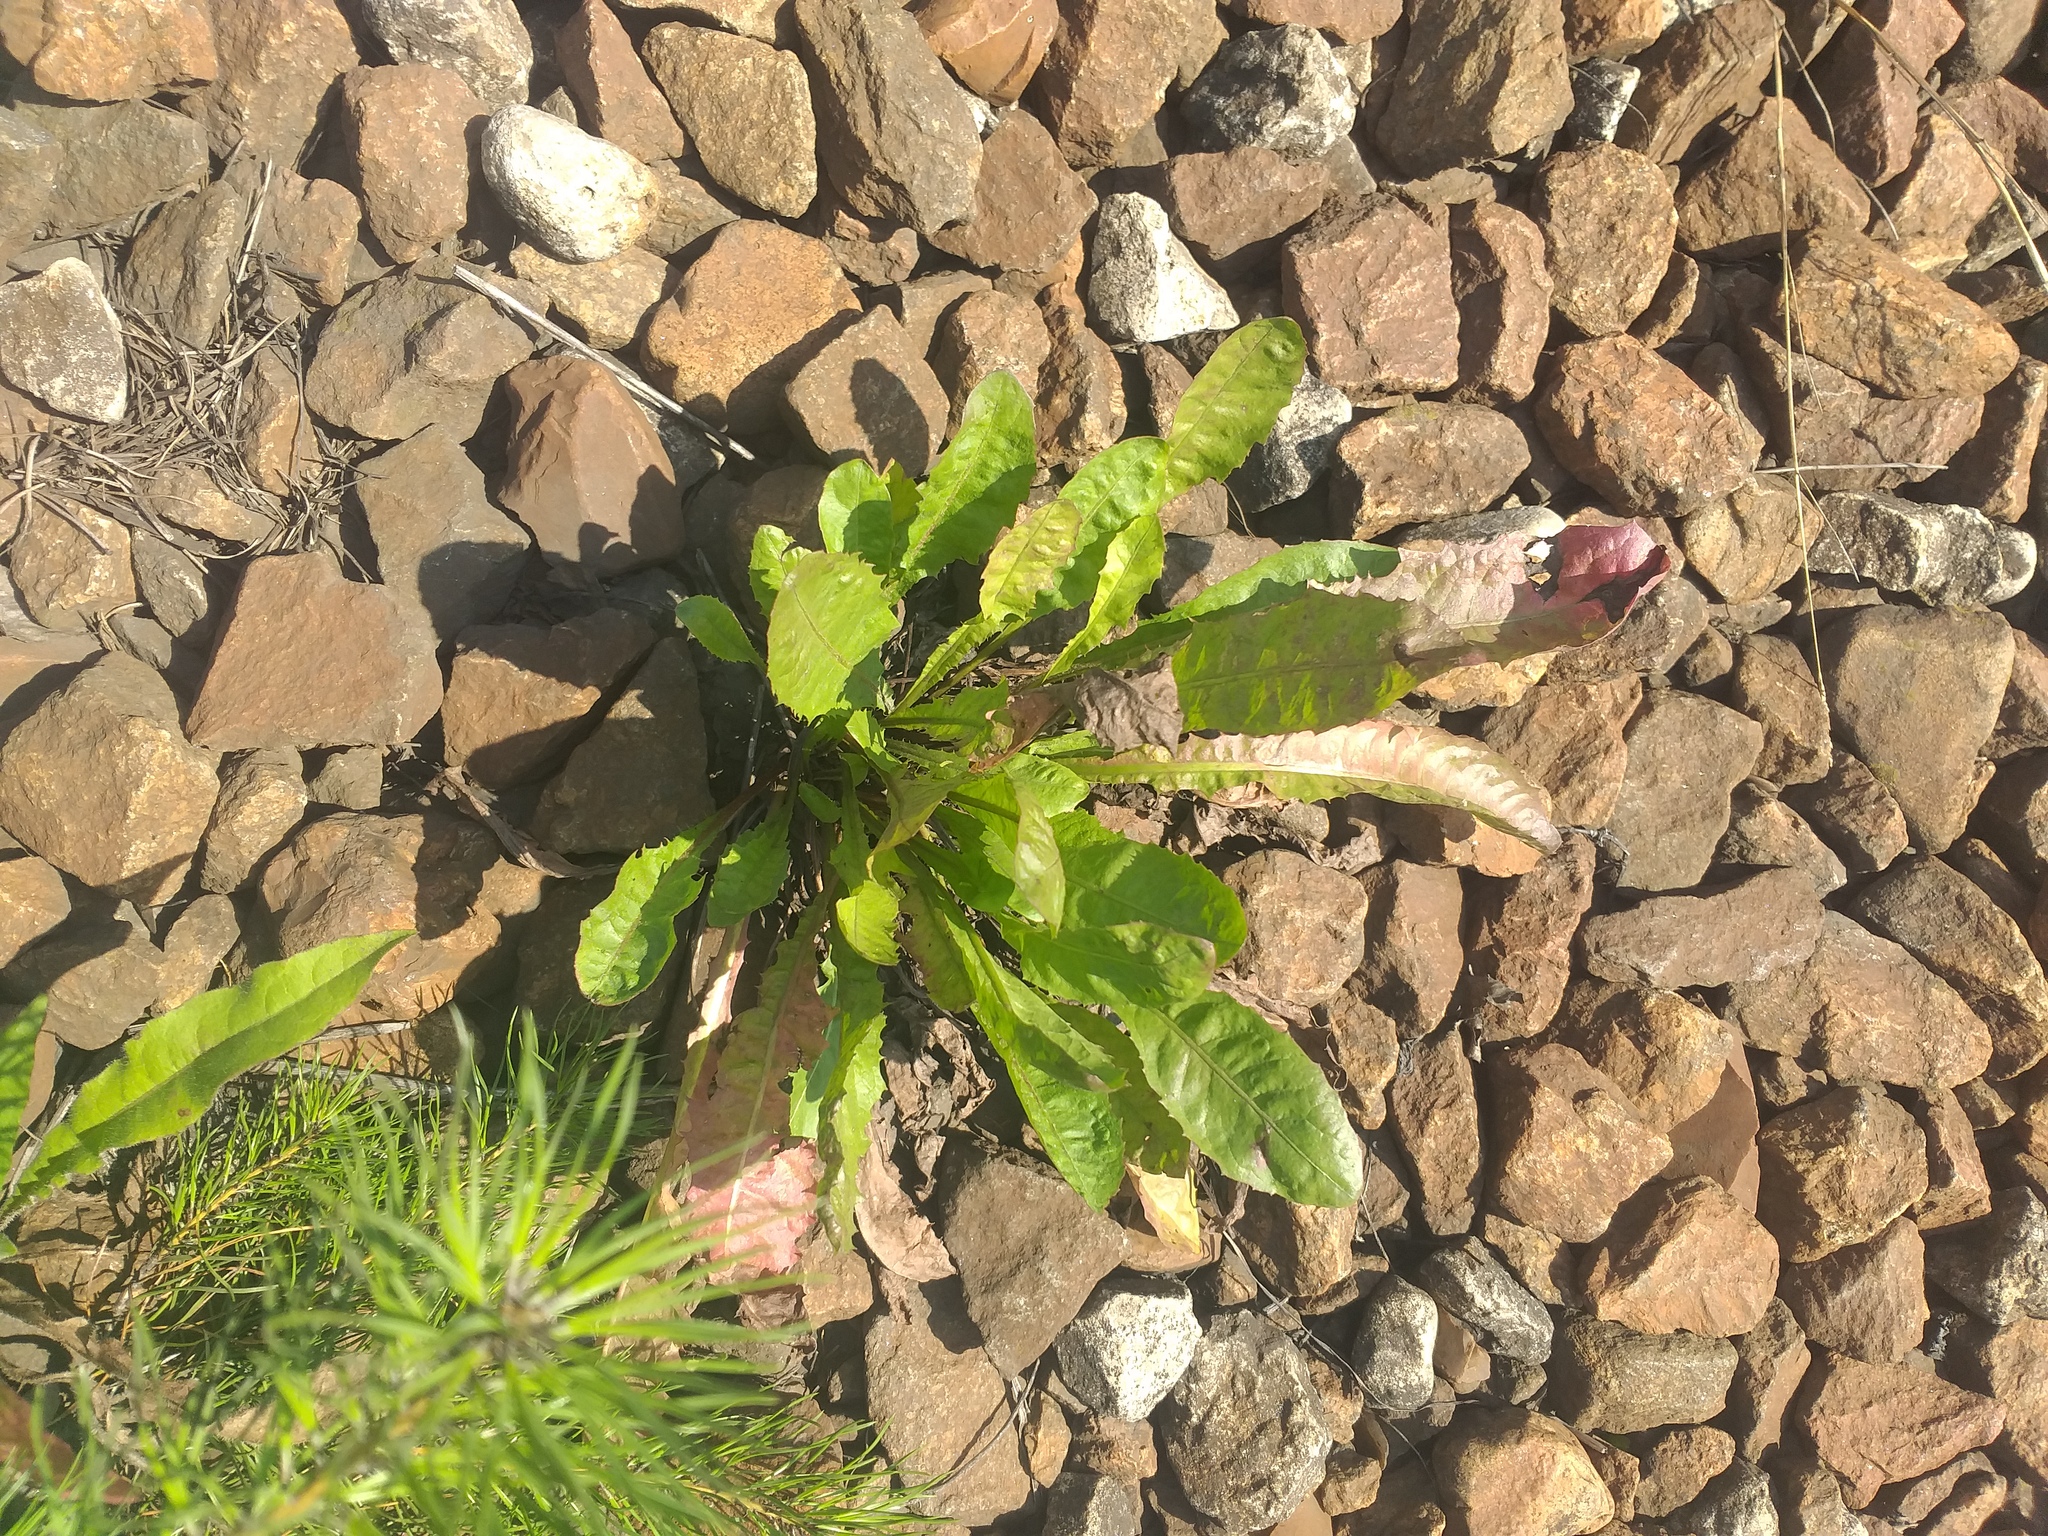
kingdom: Plantae
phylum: Tracheophyta
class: Magnoliopsida
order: Asterales
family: Asteraceae
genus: Taraxacum
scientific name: Taraxacum officinale
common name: Common dandelion
